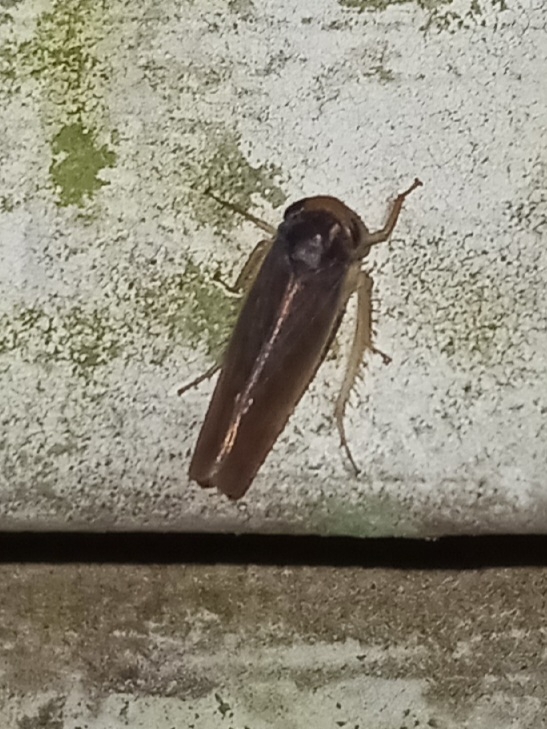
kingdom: Animalia
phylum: Arthropoda
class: Insecta
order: Hemiptera
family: Cicadellidae
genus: Chlorotettix
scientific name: Chlorotettix melanotus
